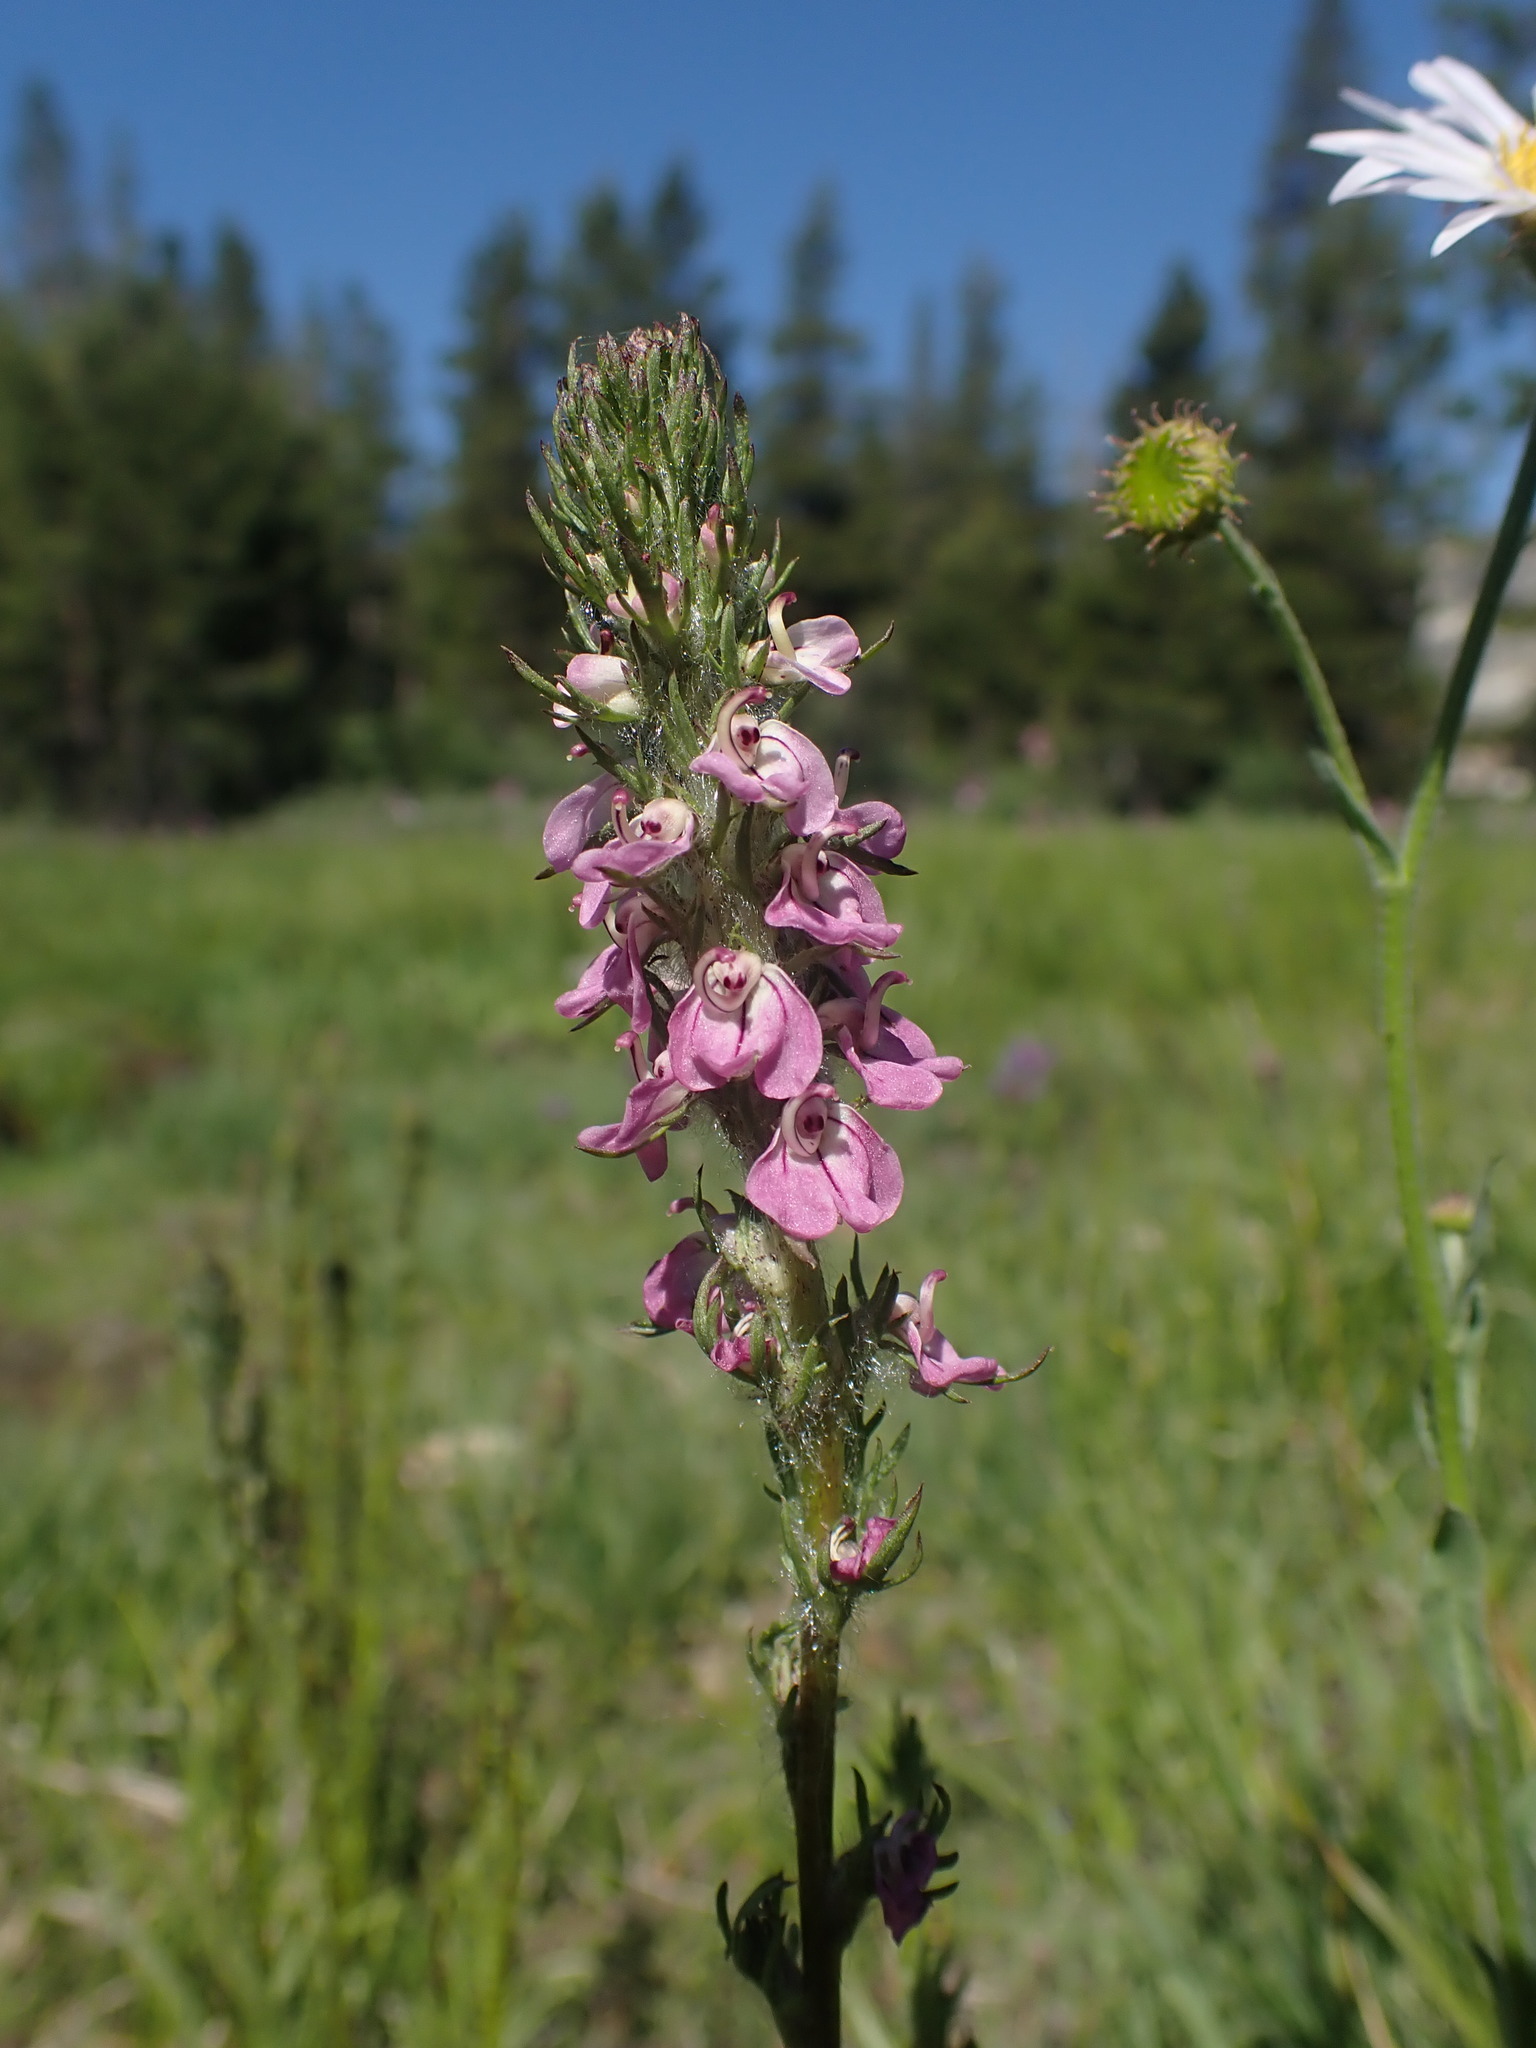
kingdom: Plantae
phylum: Tracheophyta
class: Magnoliopsida
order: Lamiales
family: Orobanchaceae
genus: Pedicularis
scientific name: Pedicularis attollens
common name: Slender pedicularis
